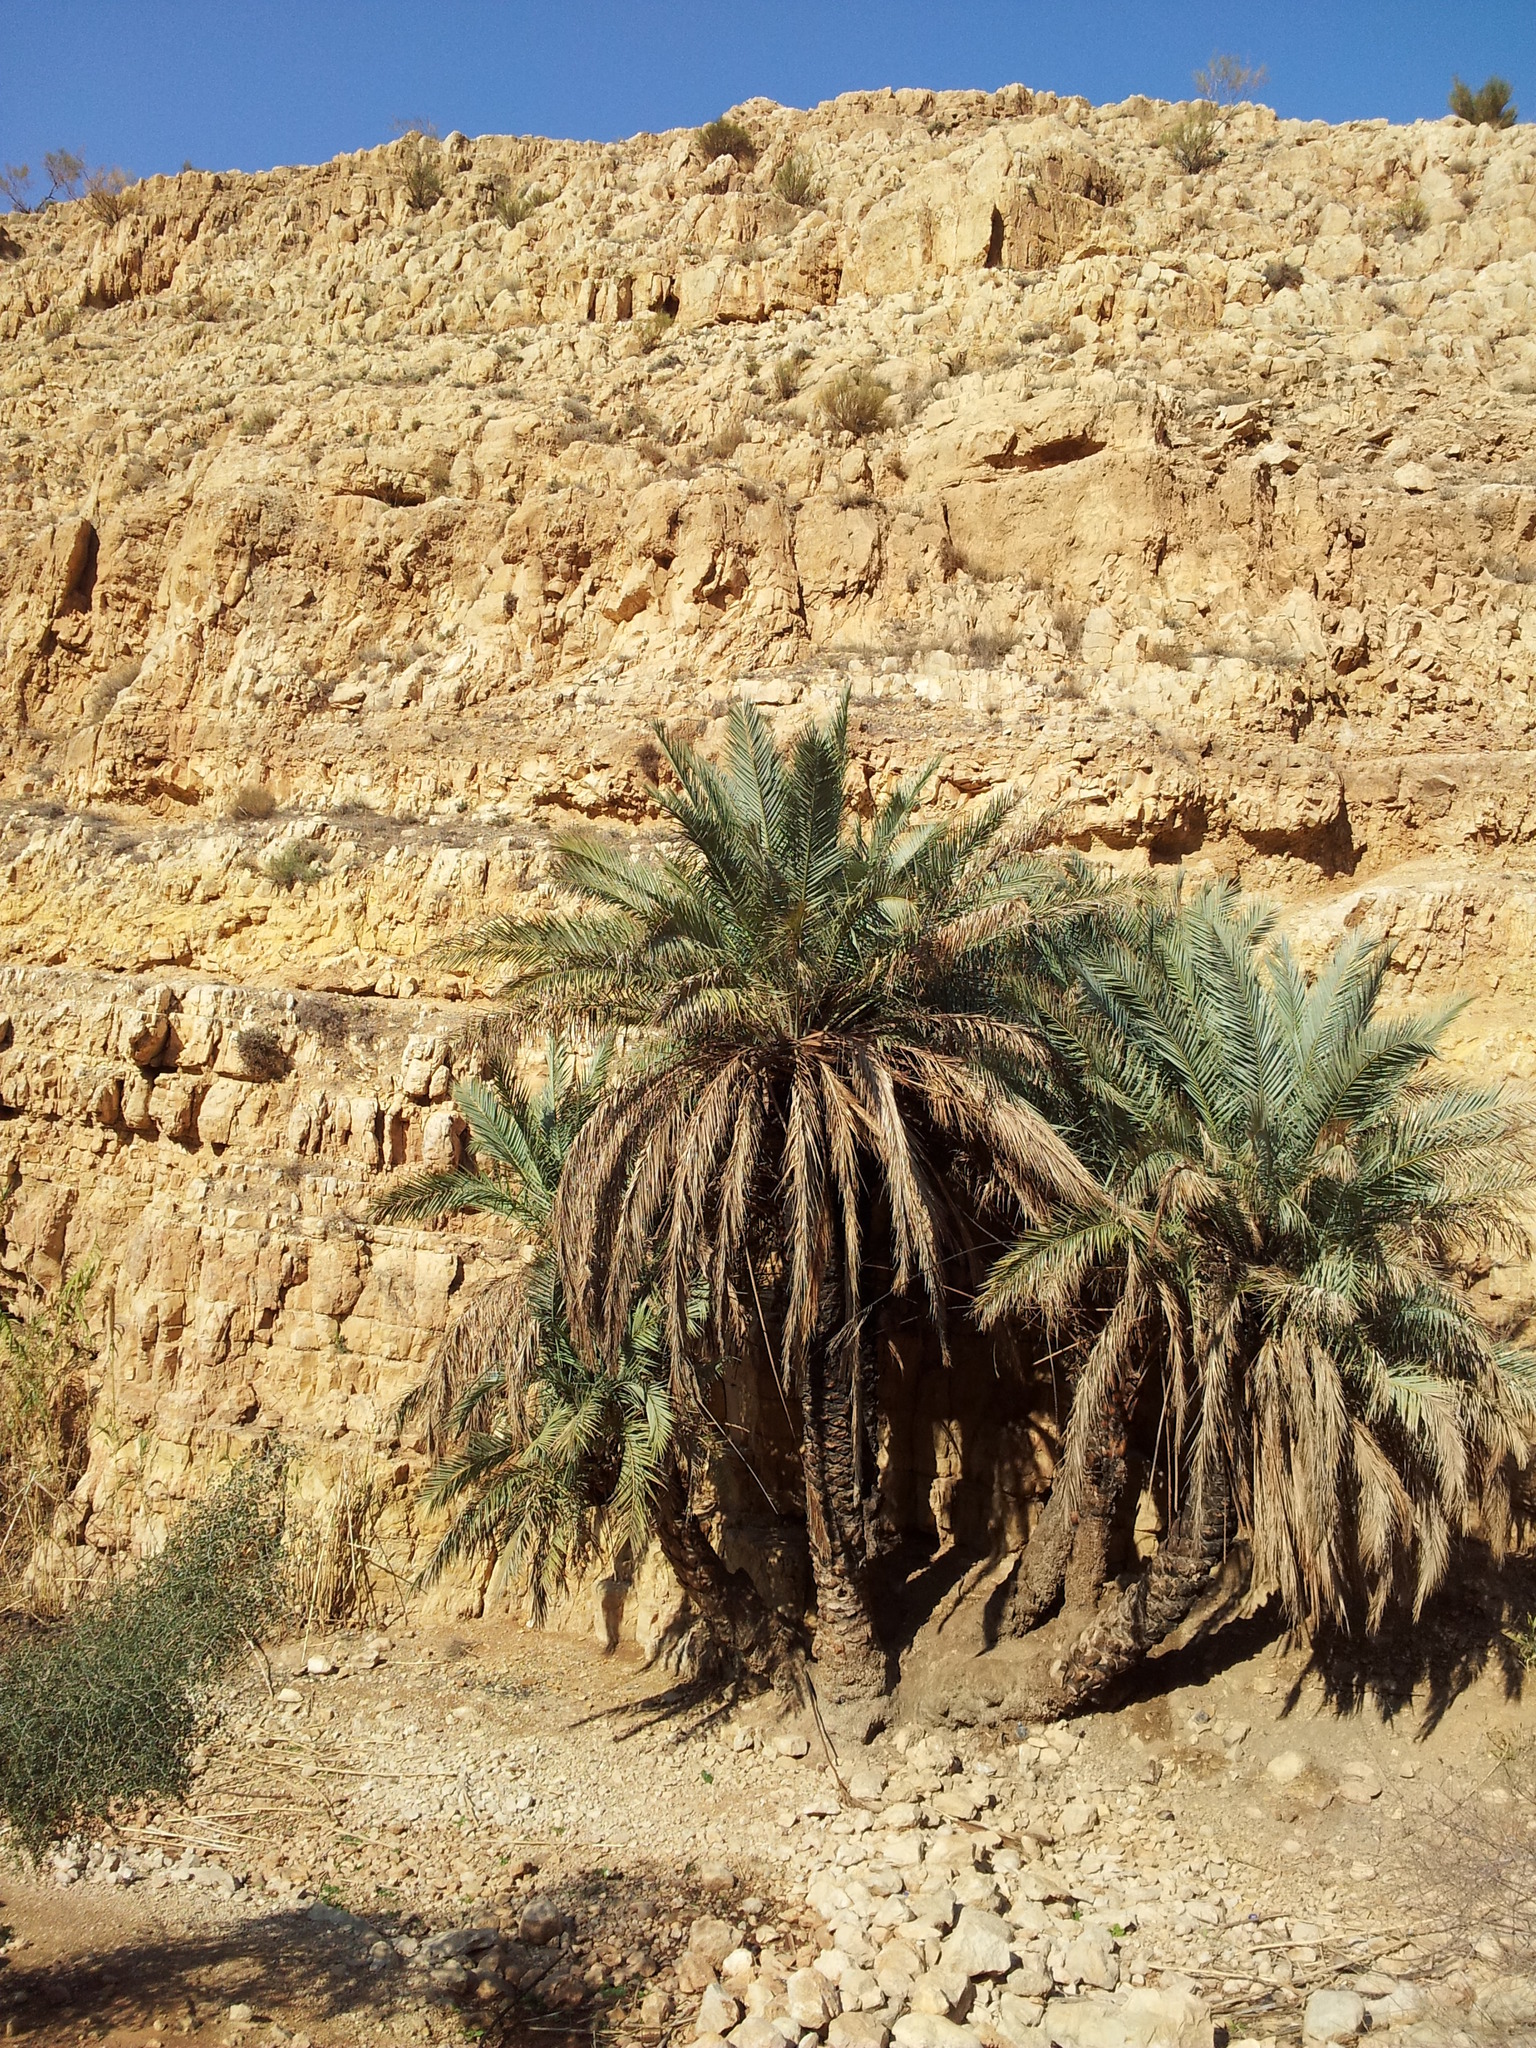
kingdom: Plantae
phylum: Tracheophyta
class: Liliopsida
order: Arecales
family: Arecaceae
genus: Phoenix
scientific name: Phoenix dactylifera
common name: Date palm
